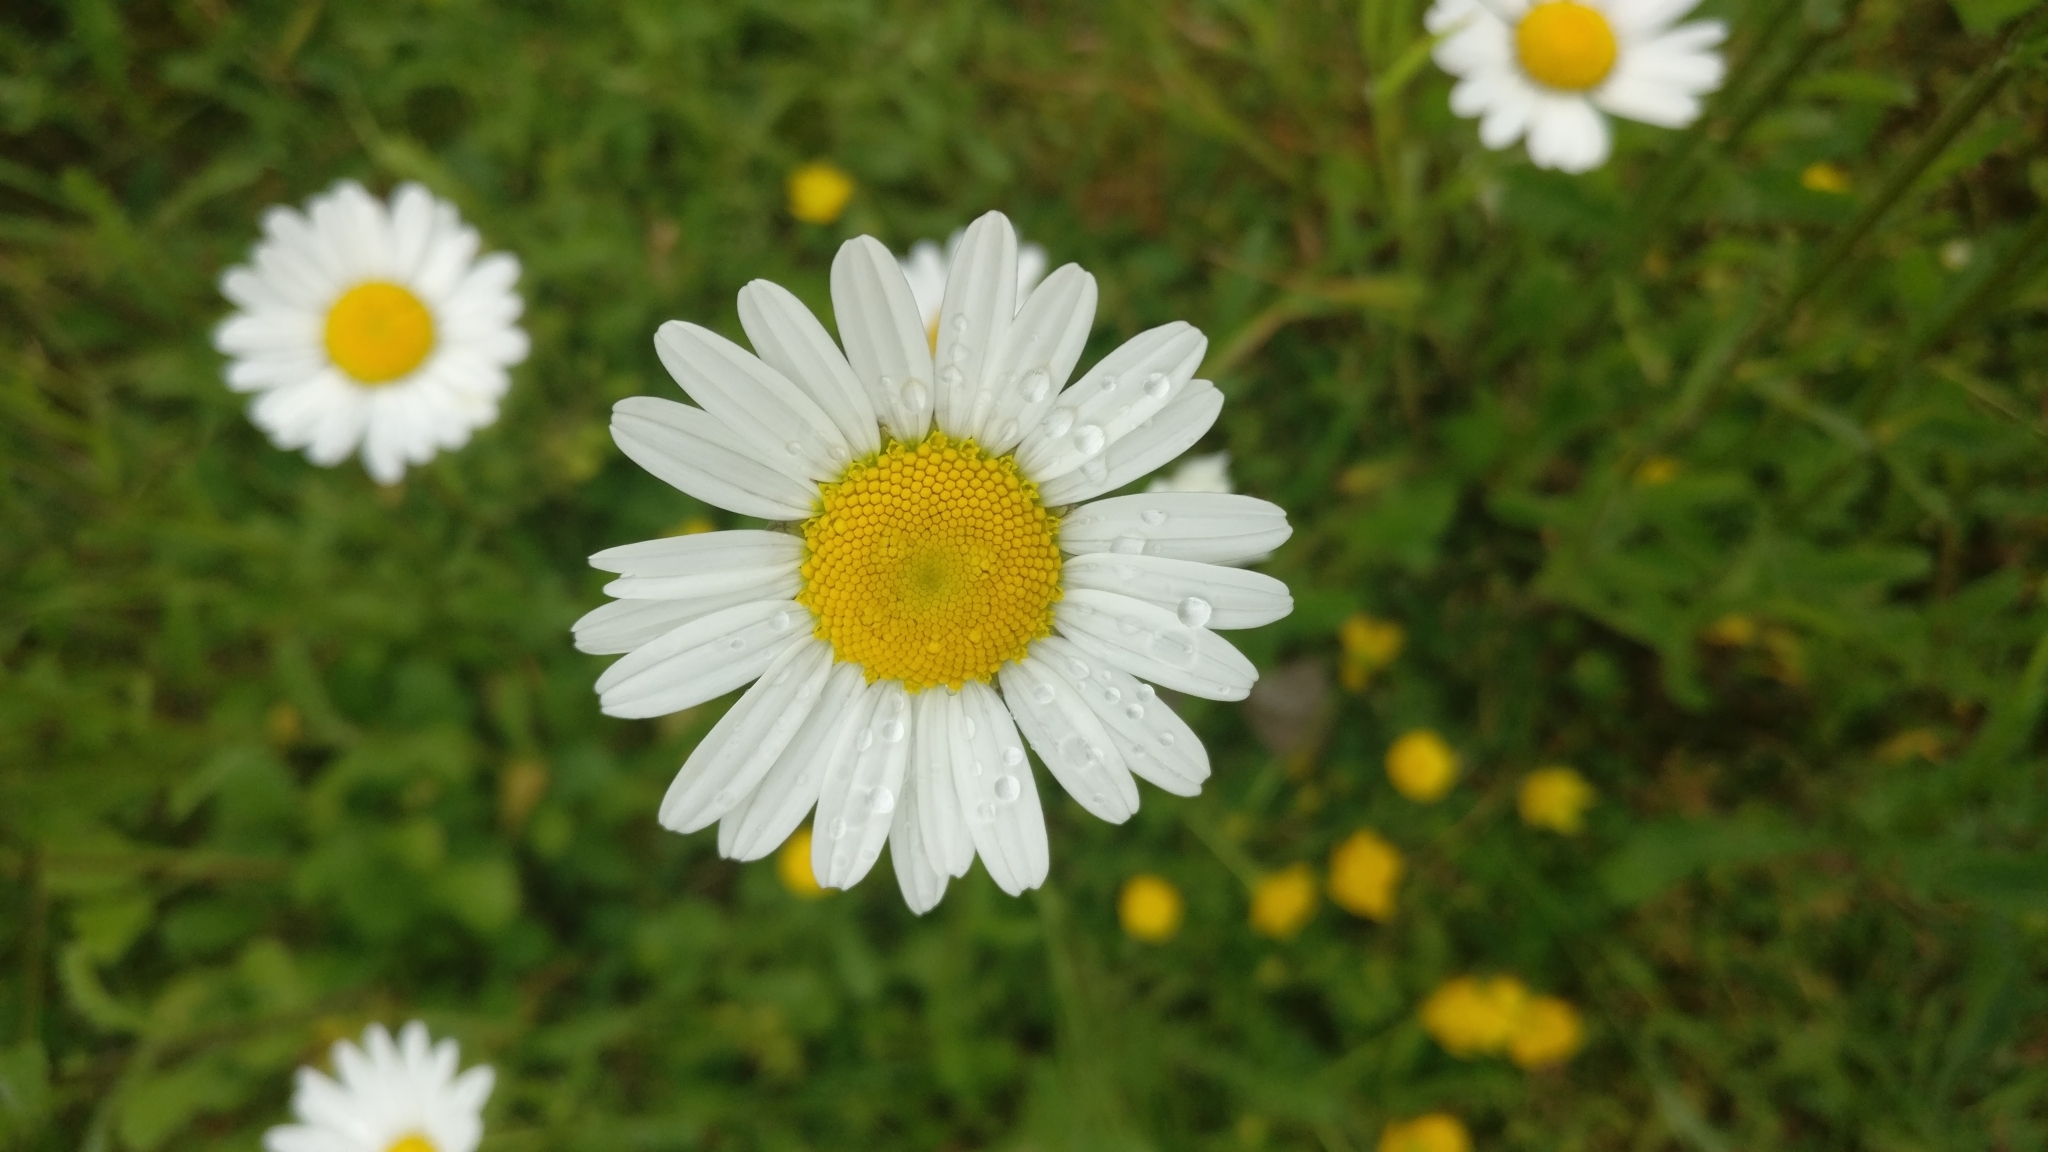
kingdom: Plantae
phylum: Tracheophyta
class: Magnoliopsida
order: Asterales
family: Asteraceae
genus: Leucanthemum
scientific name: Leucanthemum vulgare
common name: Oxeye daisy
